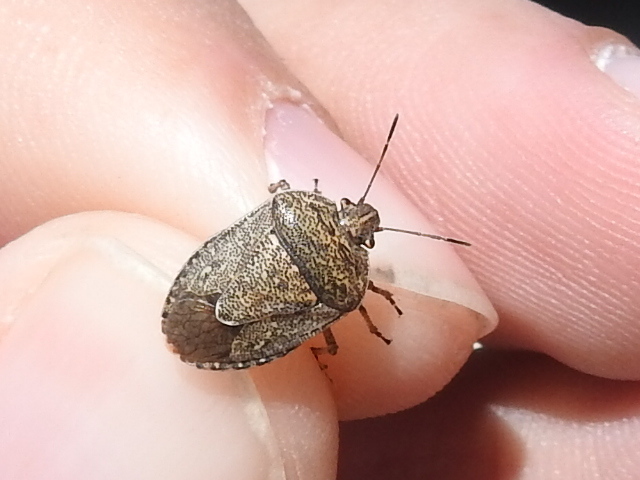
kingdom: Animalia
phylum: Arthropoda
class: Insecta
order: Hemiptera
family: Pentatomidae
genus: Hymenarcys
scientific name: Hymenarcys nervosa
